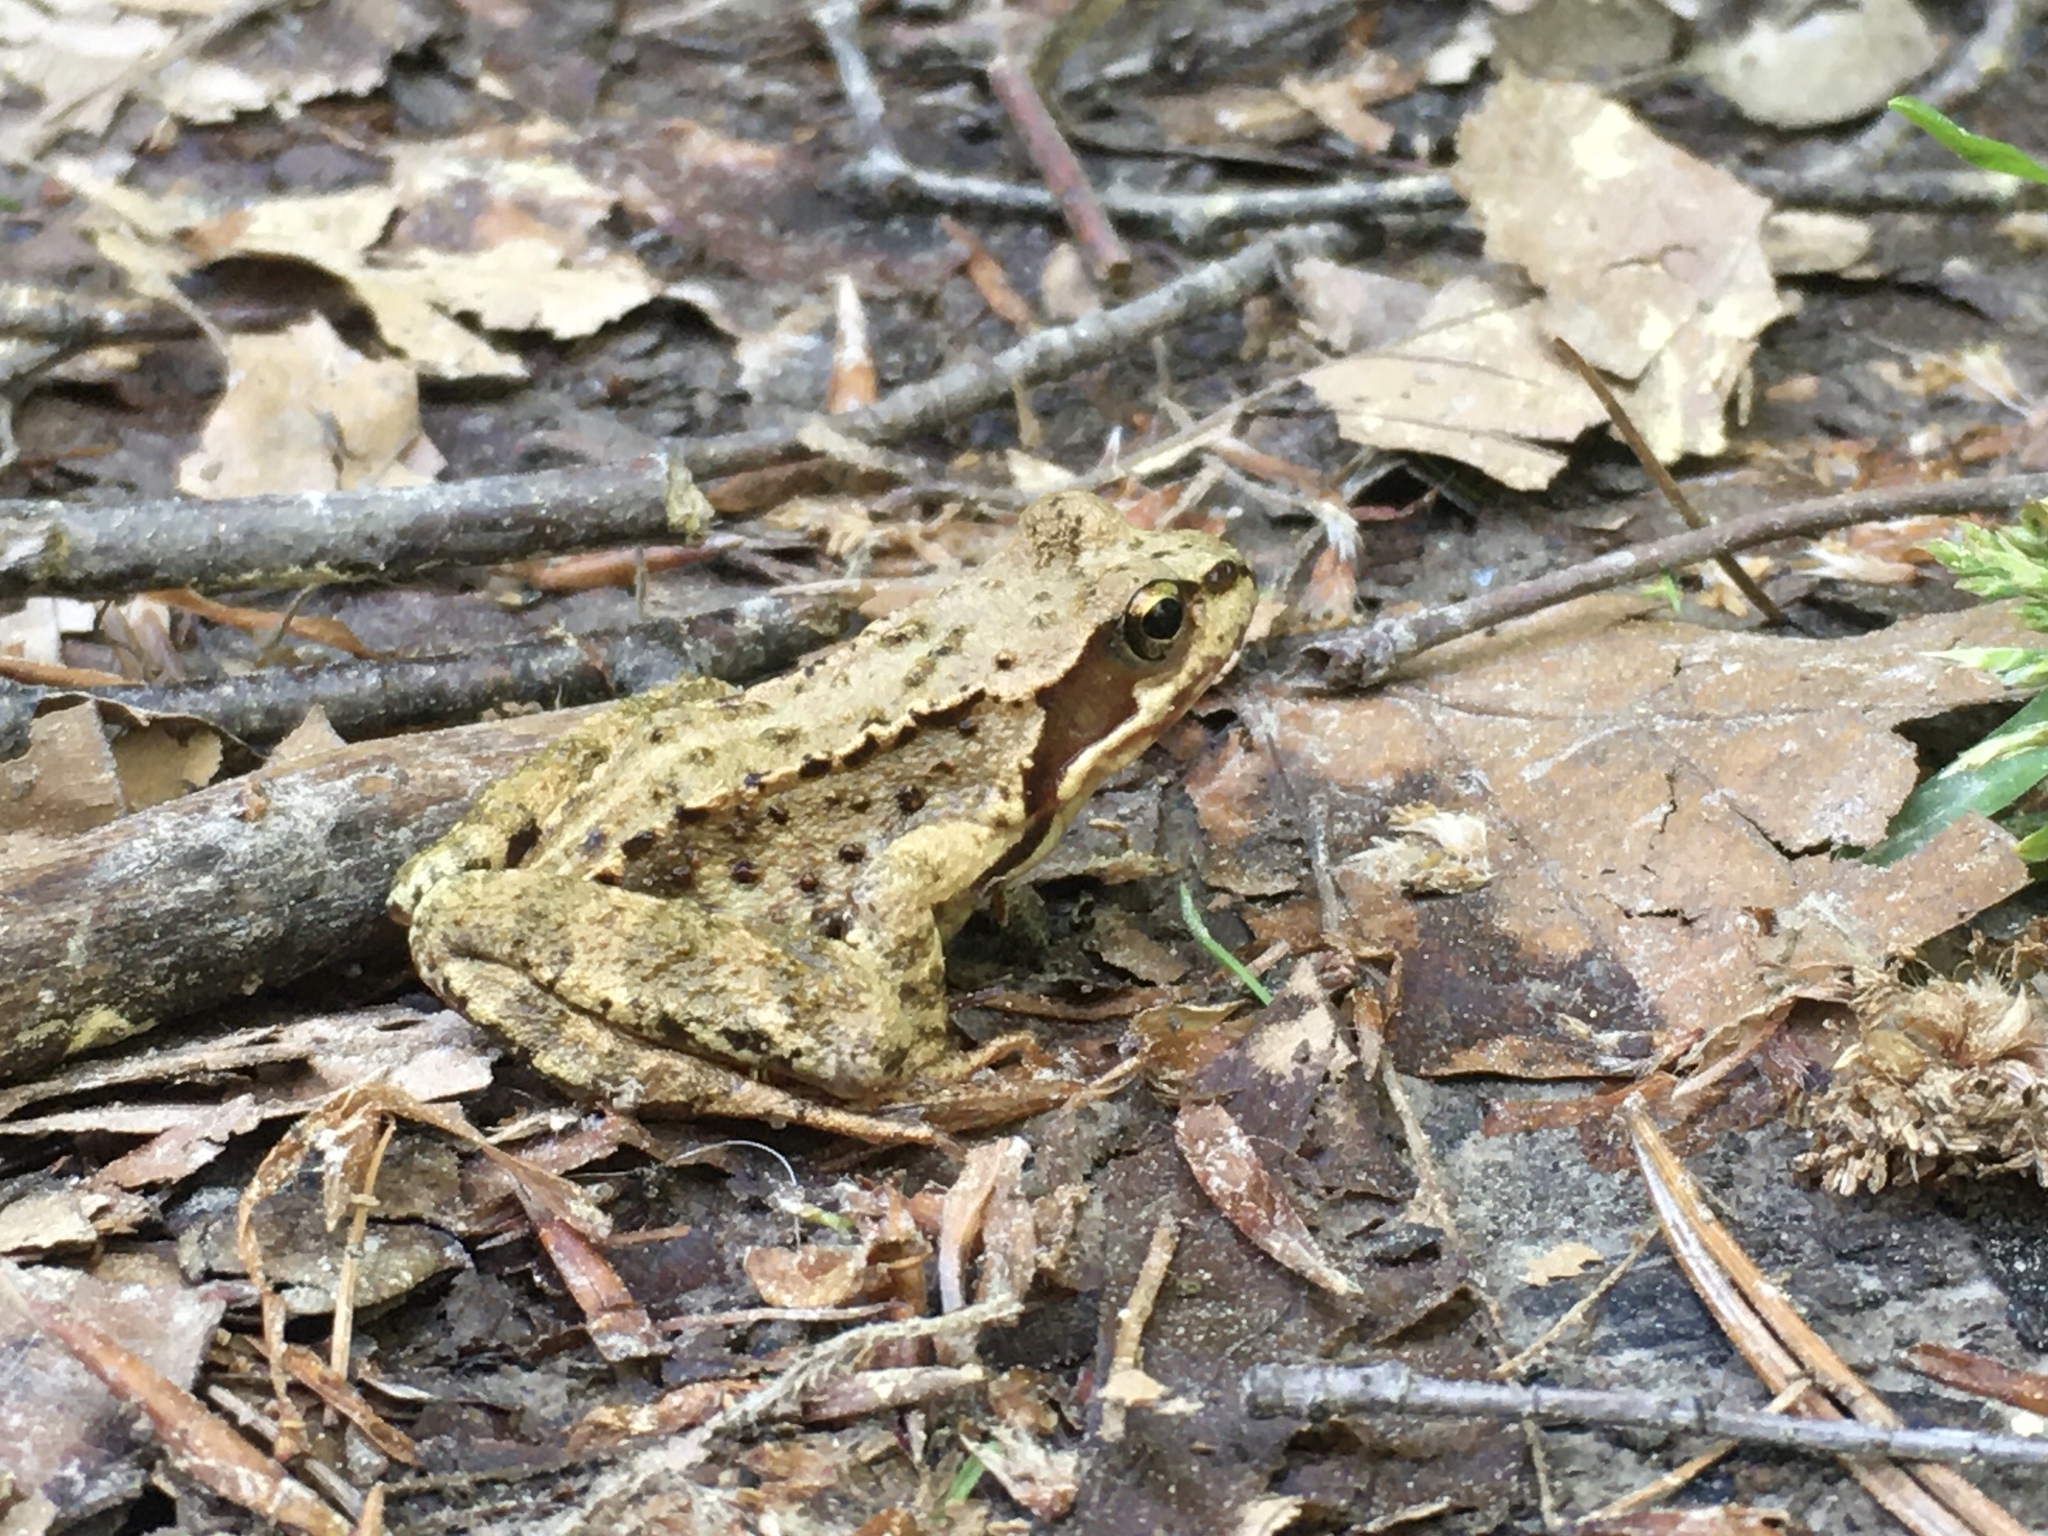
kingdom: Animalia
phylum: Chordata
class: Amphibia
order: Anura
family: Ranidae
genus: Rana
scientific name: Rana temporaria
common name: Common frog
